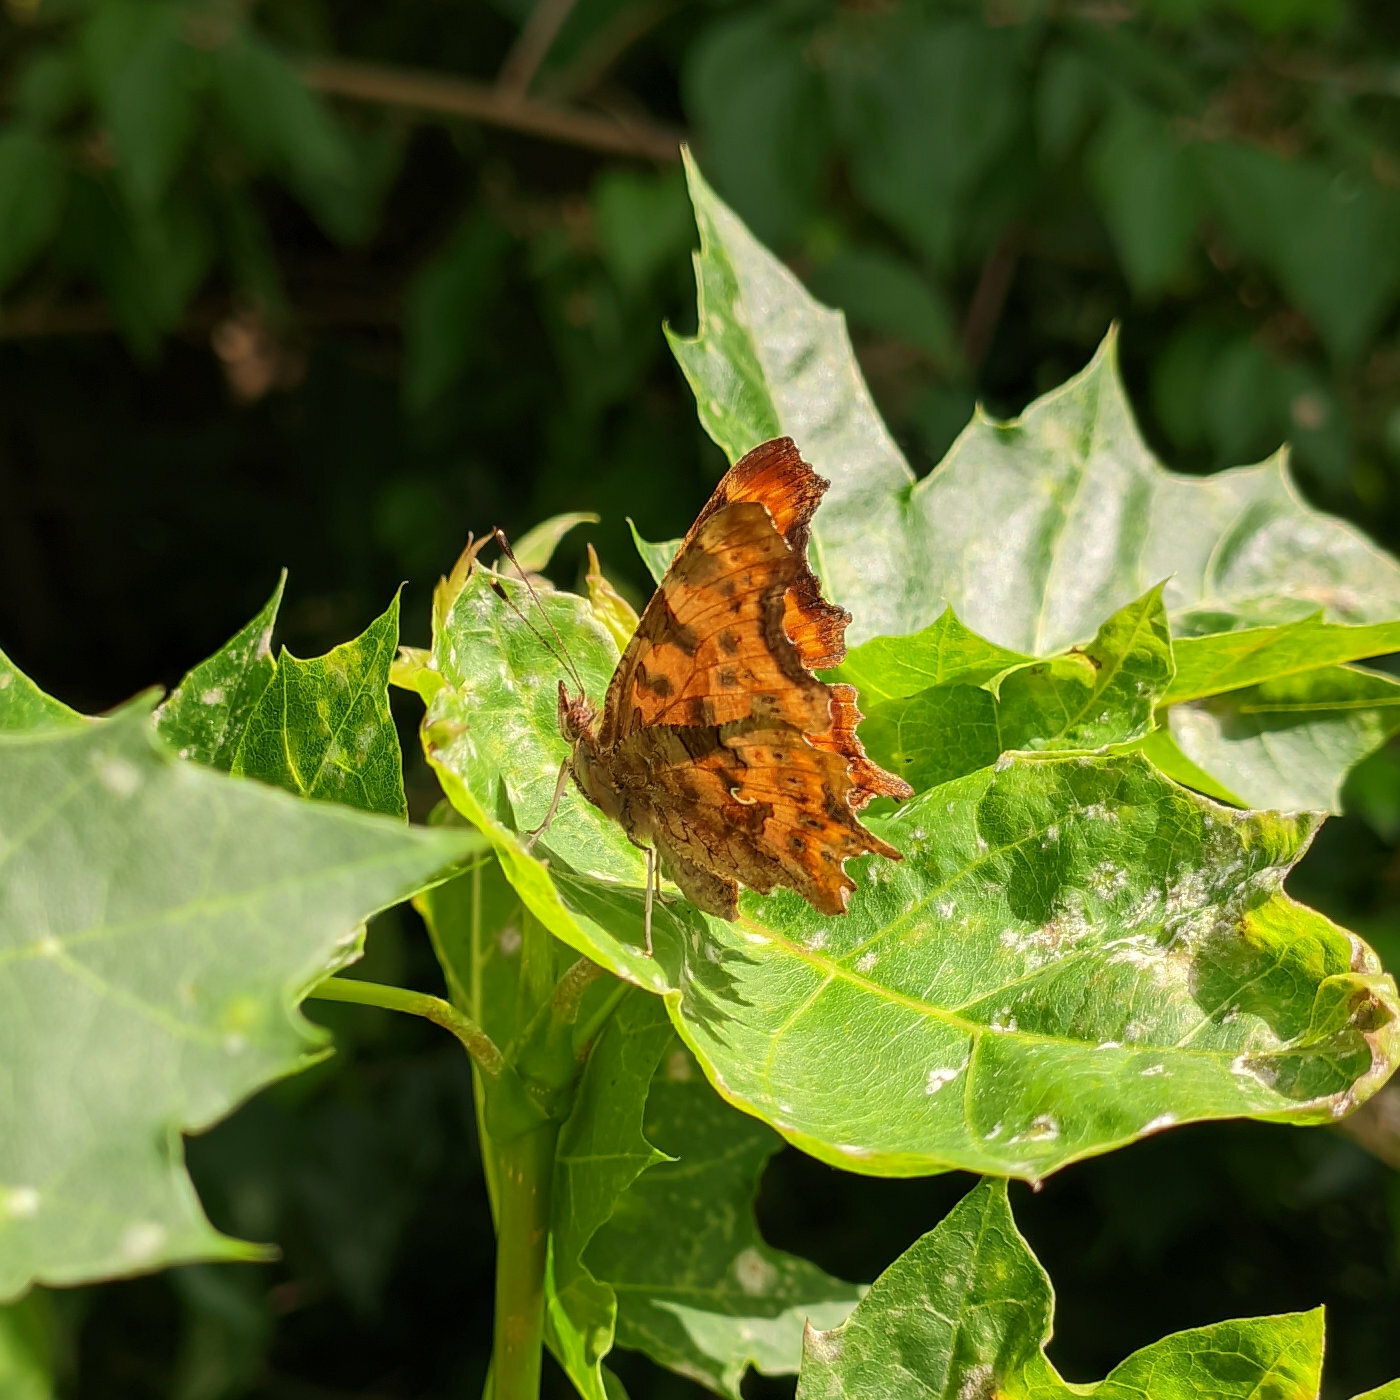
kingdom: Animalia
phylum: Arthropoda
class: Insecta
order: Lepidoptera
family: Nymphalidae
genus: Polygonia
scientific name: Polygonia c-album
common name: Comma
